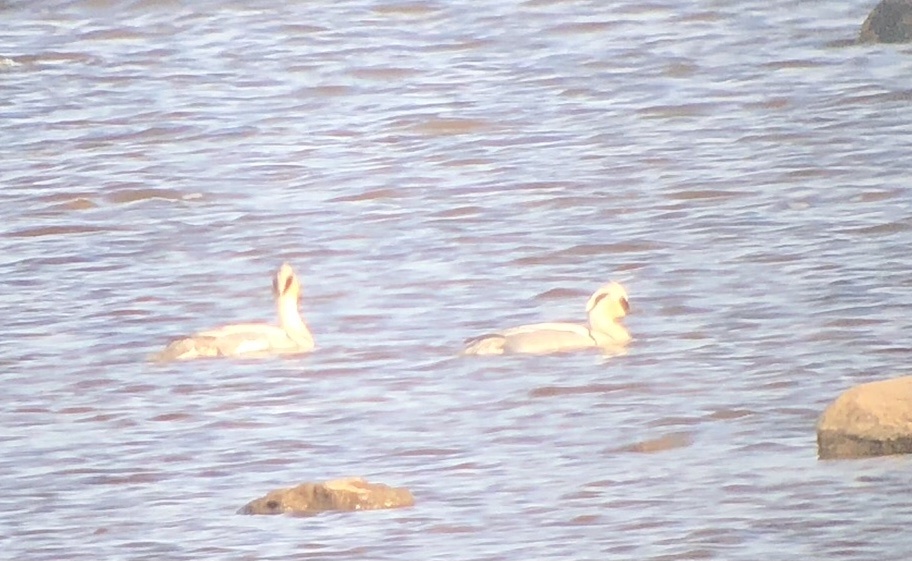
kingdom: Animalia
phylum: Chordata
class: Aves
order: Anseriformes
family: Anatidae
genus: Mergellus
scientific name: Mergellus albellus
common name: Smew
